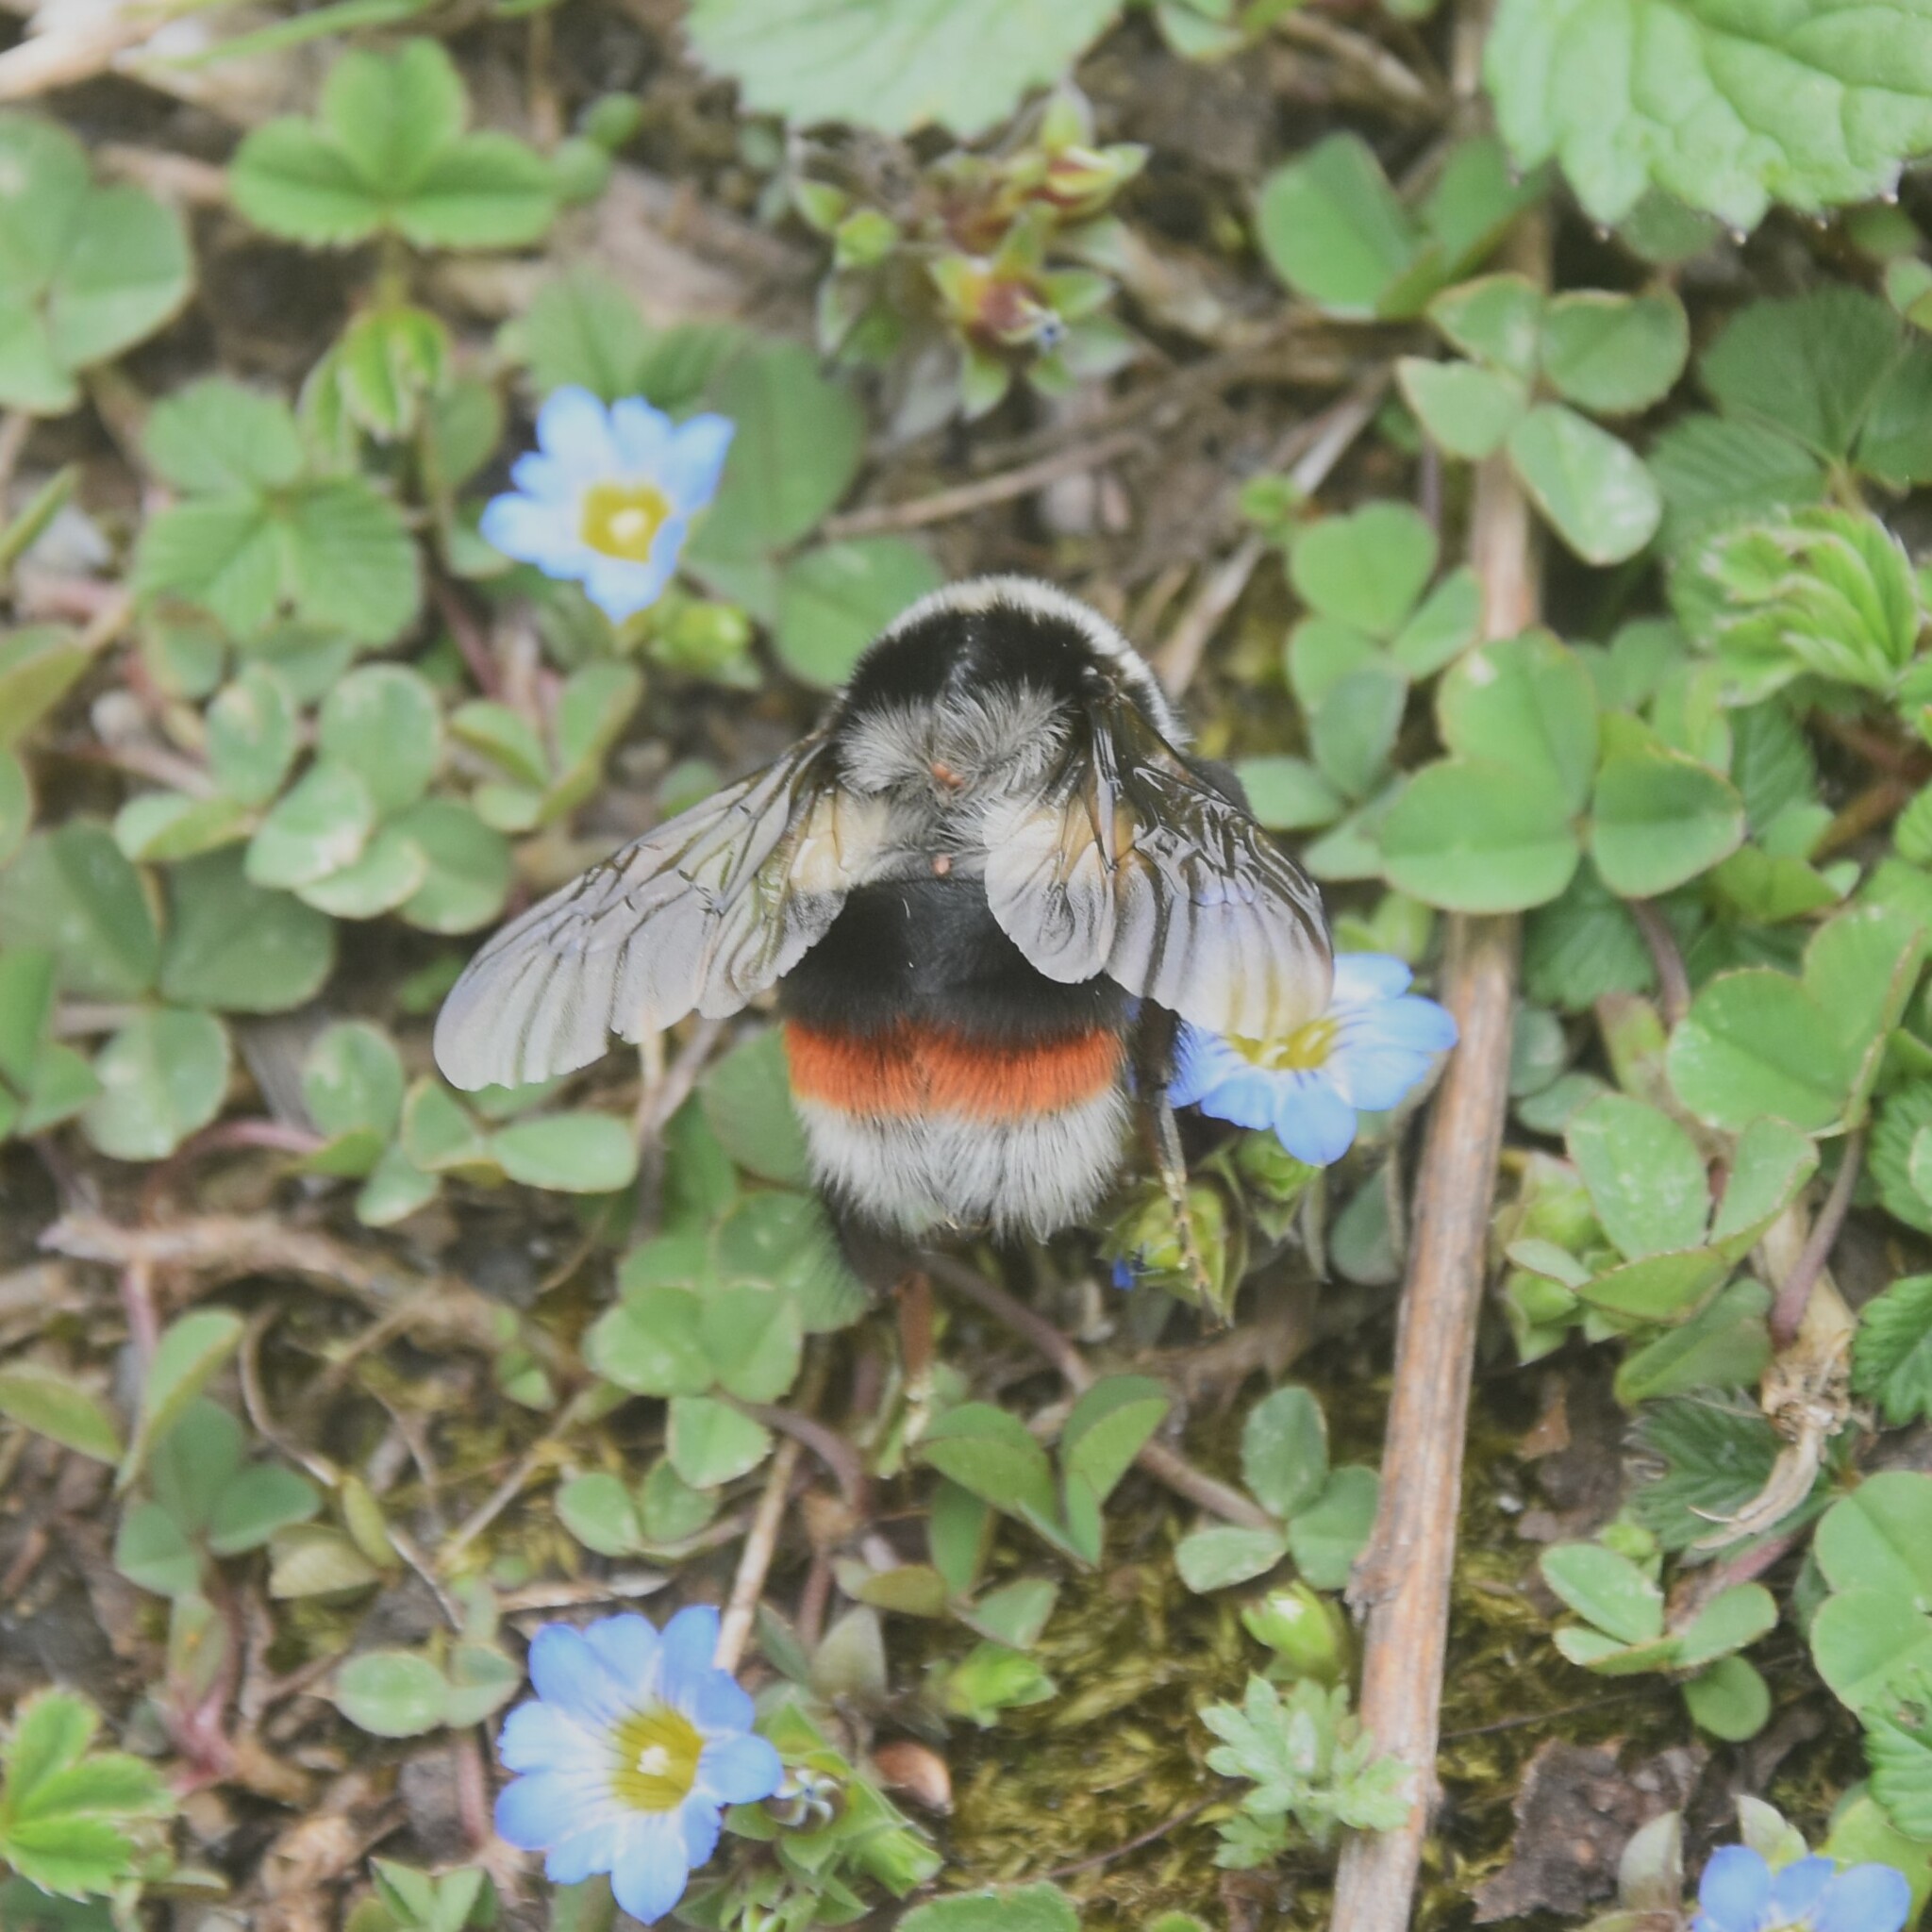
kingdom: Animalia
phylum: Arthropoda
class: Insecta
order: Hymenoptera
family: Apidae
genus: Bombus
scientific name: Bombus rufofasciatus
